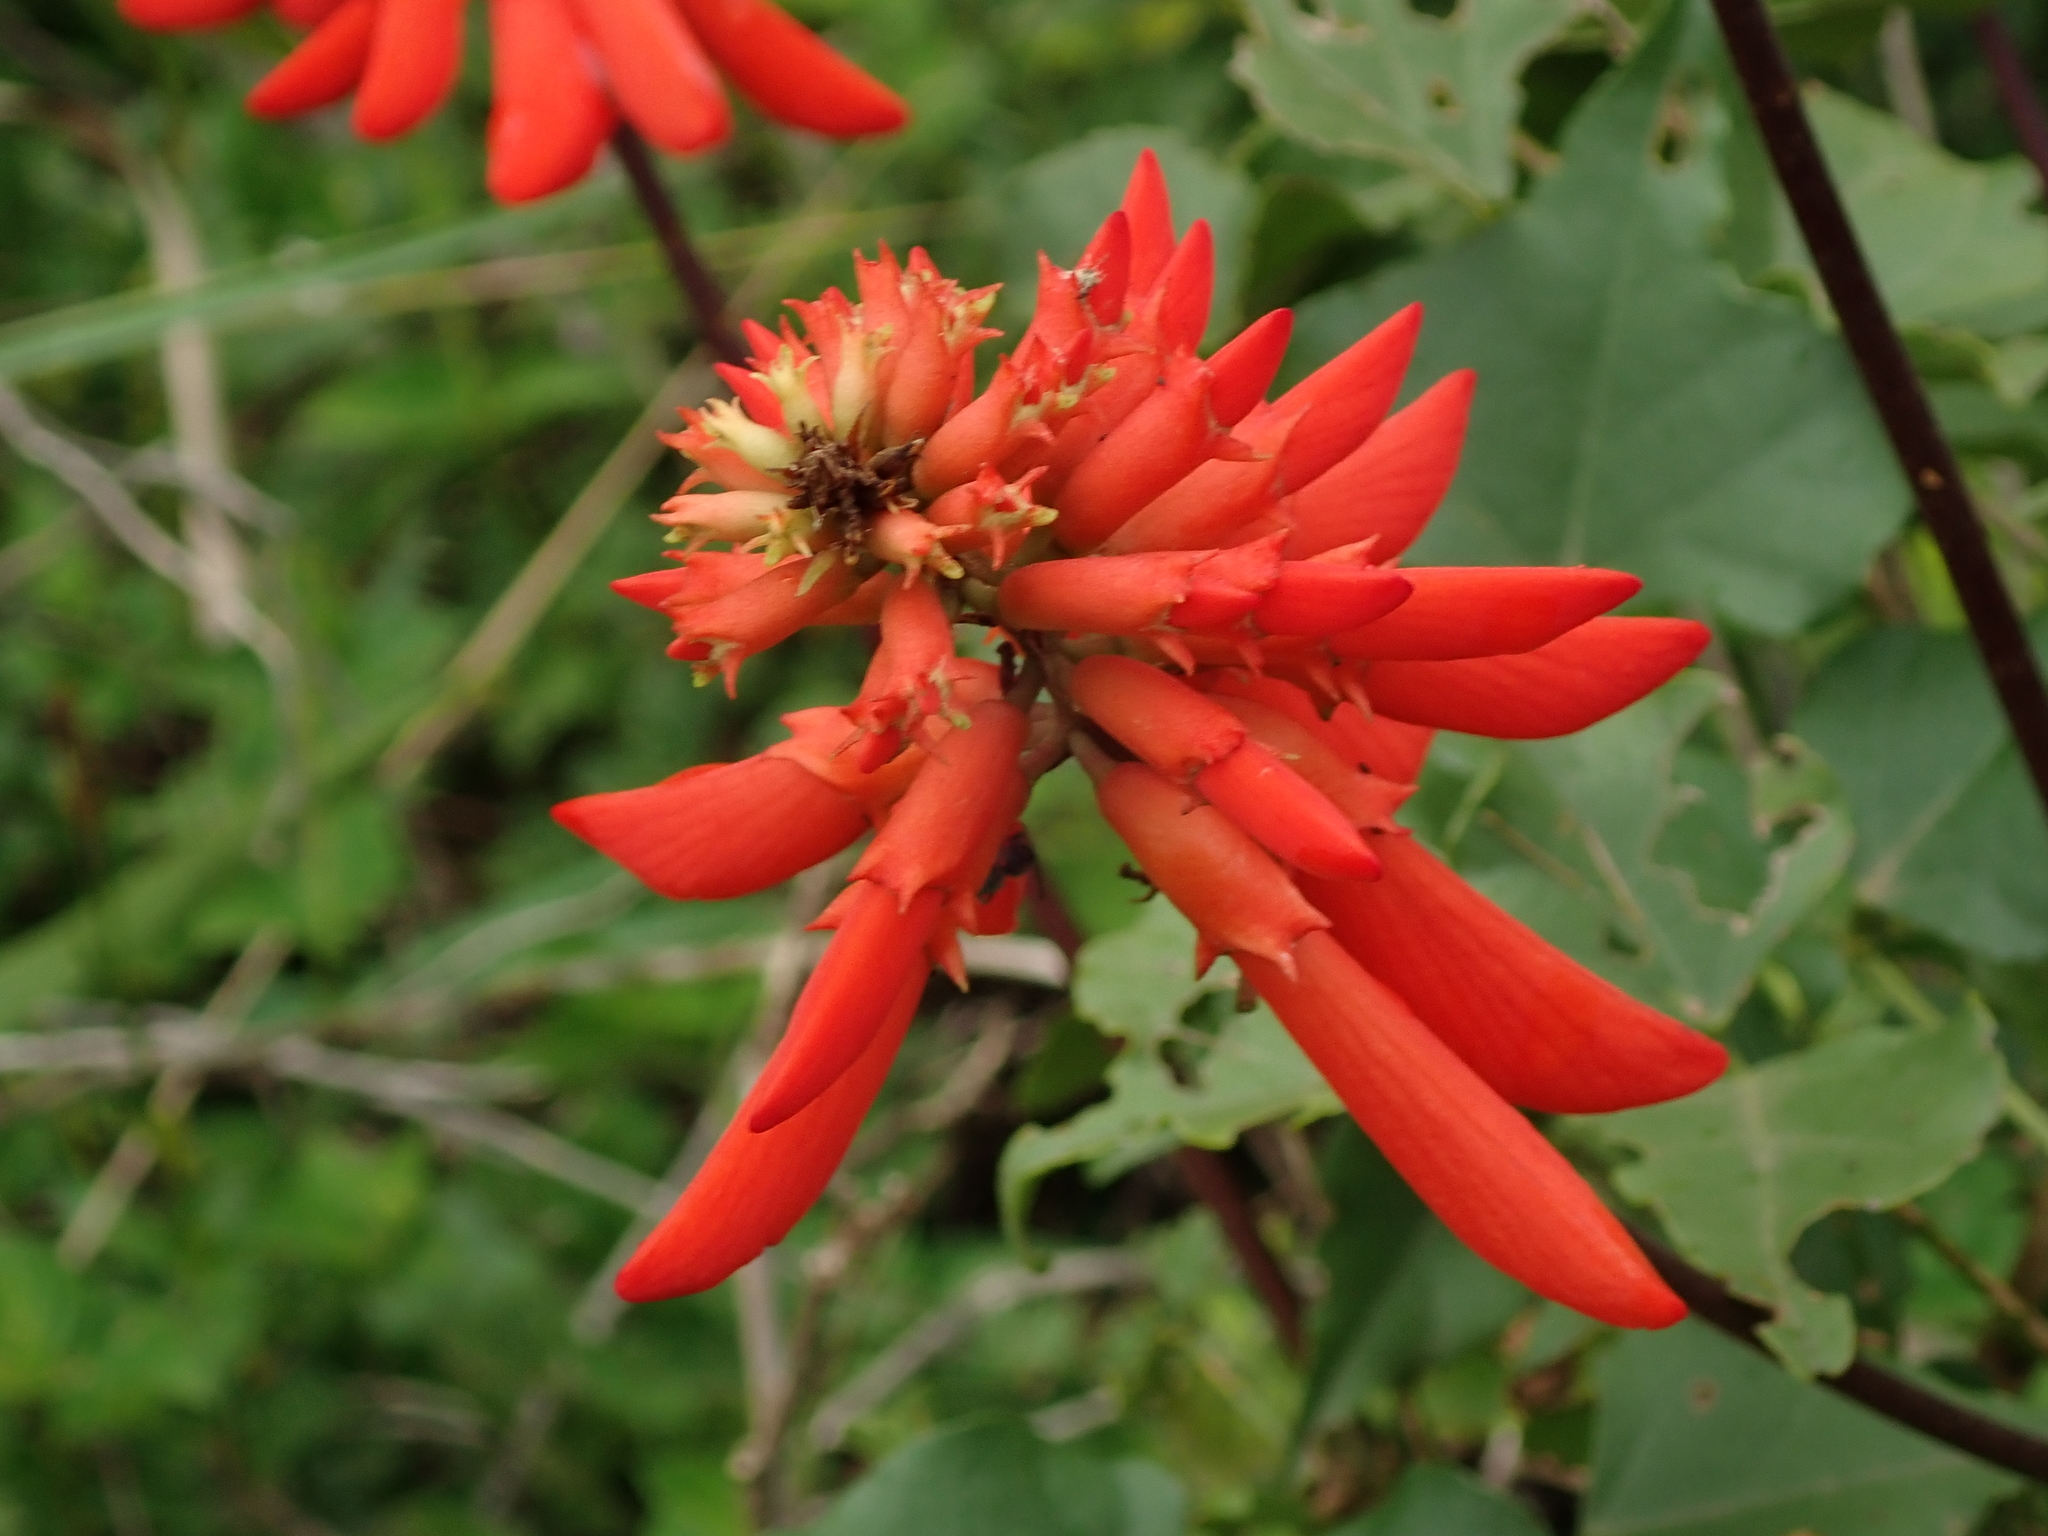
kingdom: Plantae
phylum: Tracheophyta
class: Magnoliopsida
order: Fabales
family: Fabaceae
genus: Erythrina
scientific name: Erythrina humeana
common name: Dwarf coral tree
